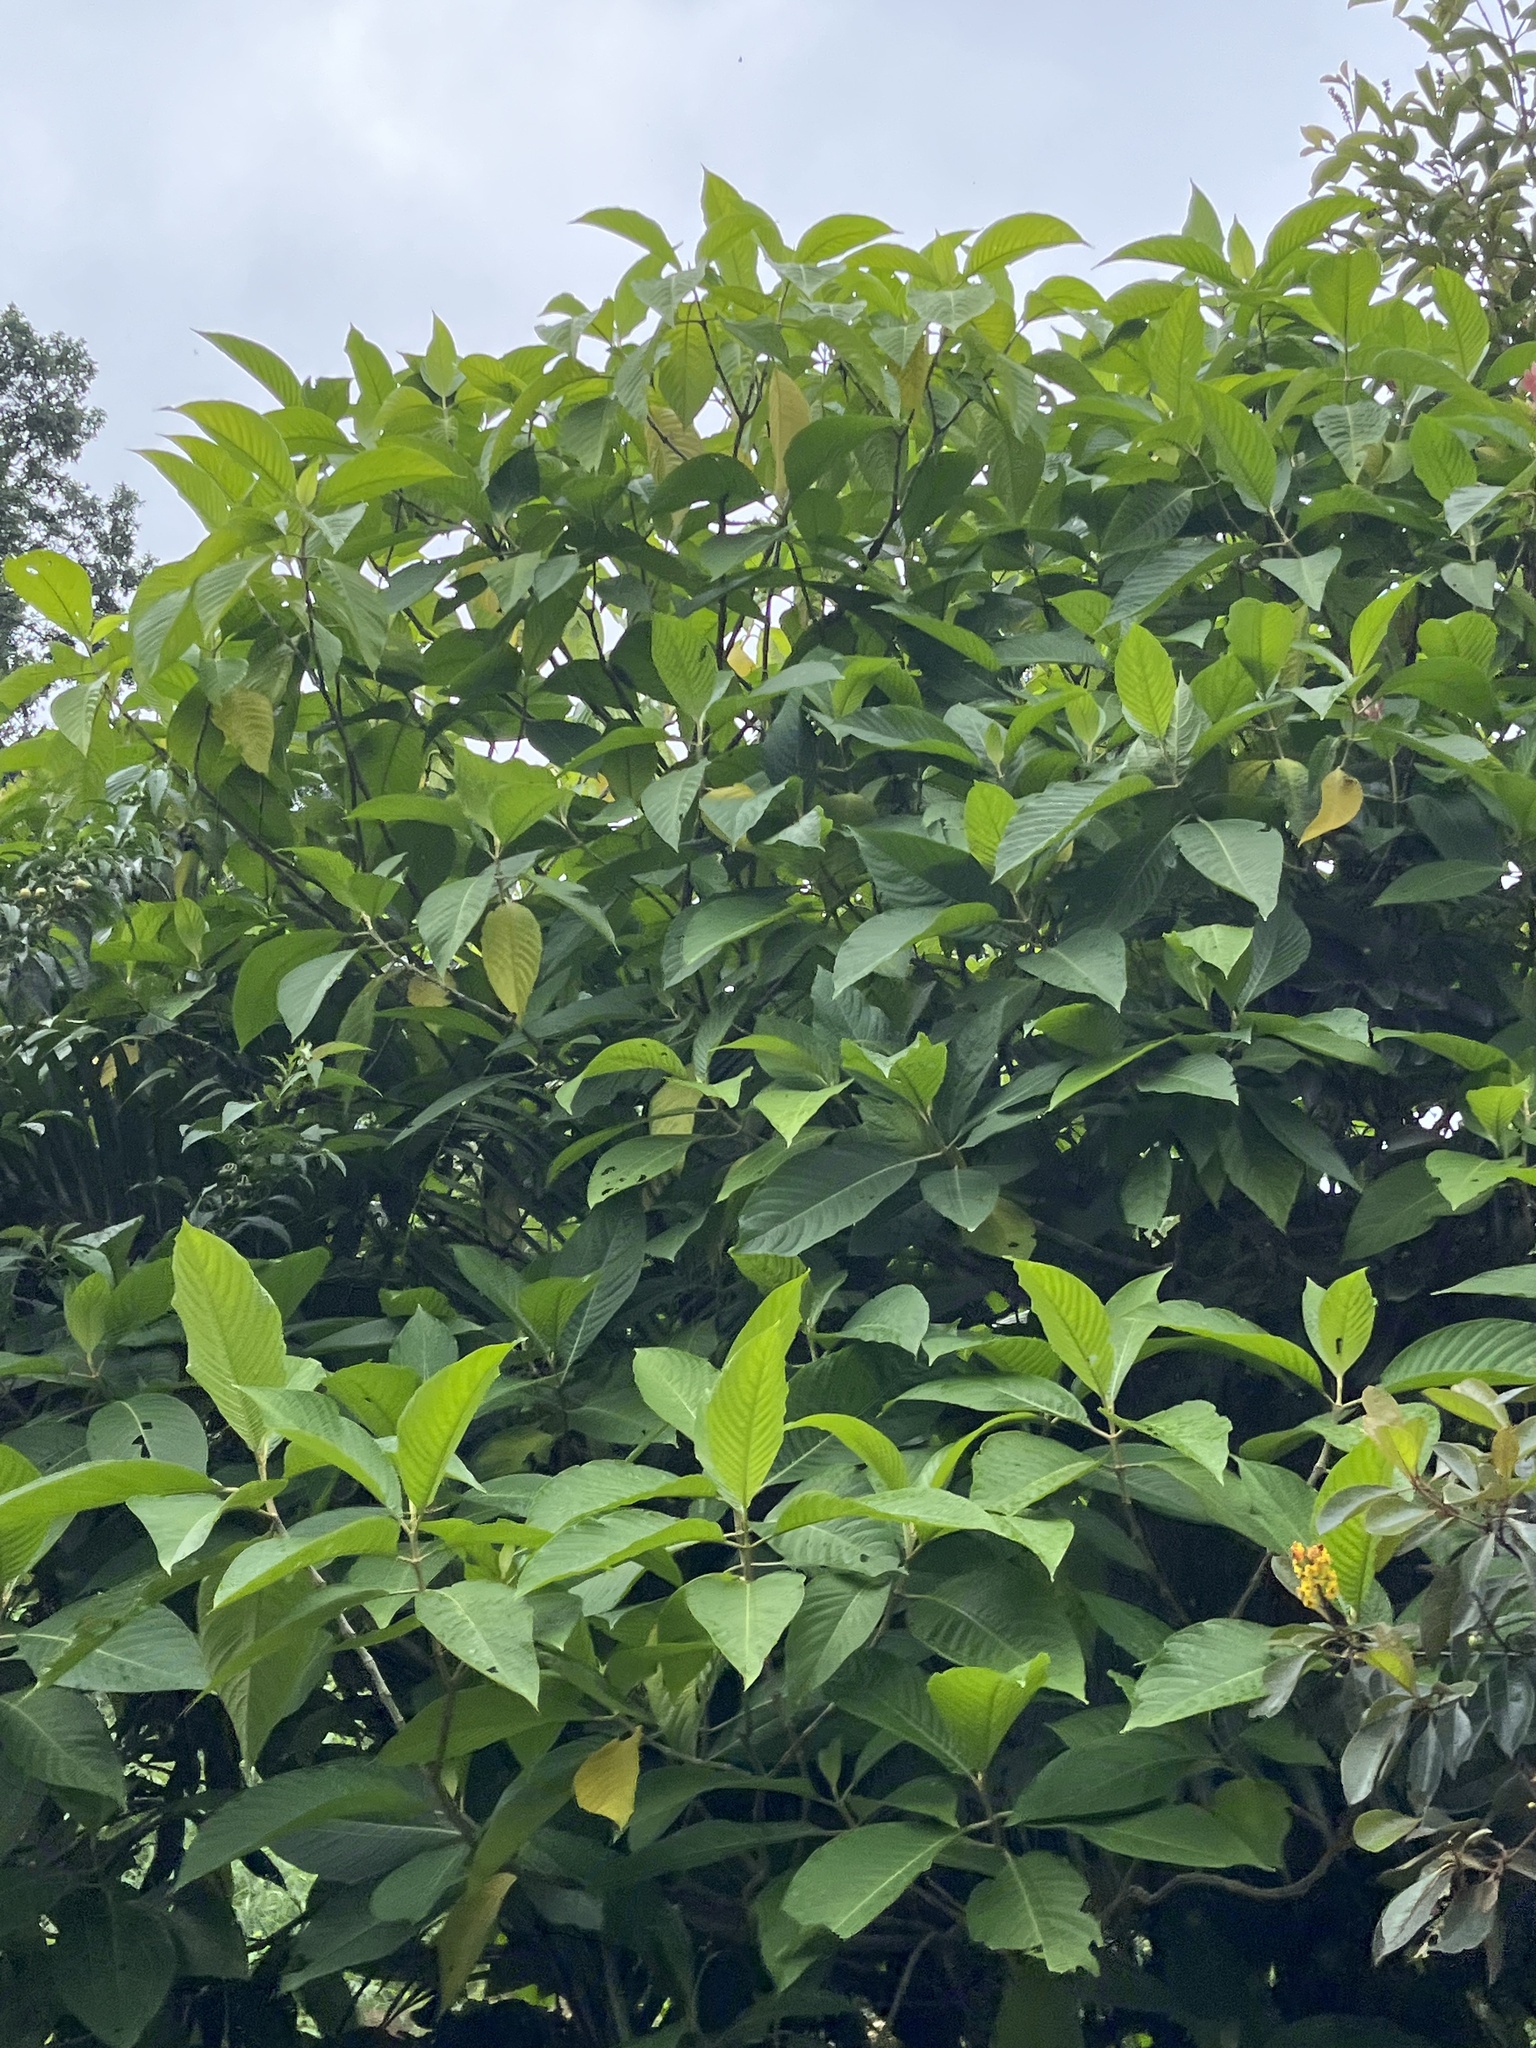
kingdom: Plantae
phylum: Tracheophyta
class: Magnoliopsida
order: Lamiales
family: Acanthaceae
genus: Megaskepasma
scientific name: Megaskepasma erythrochlamys
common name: Brazilian red-cloak
